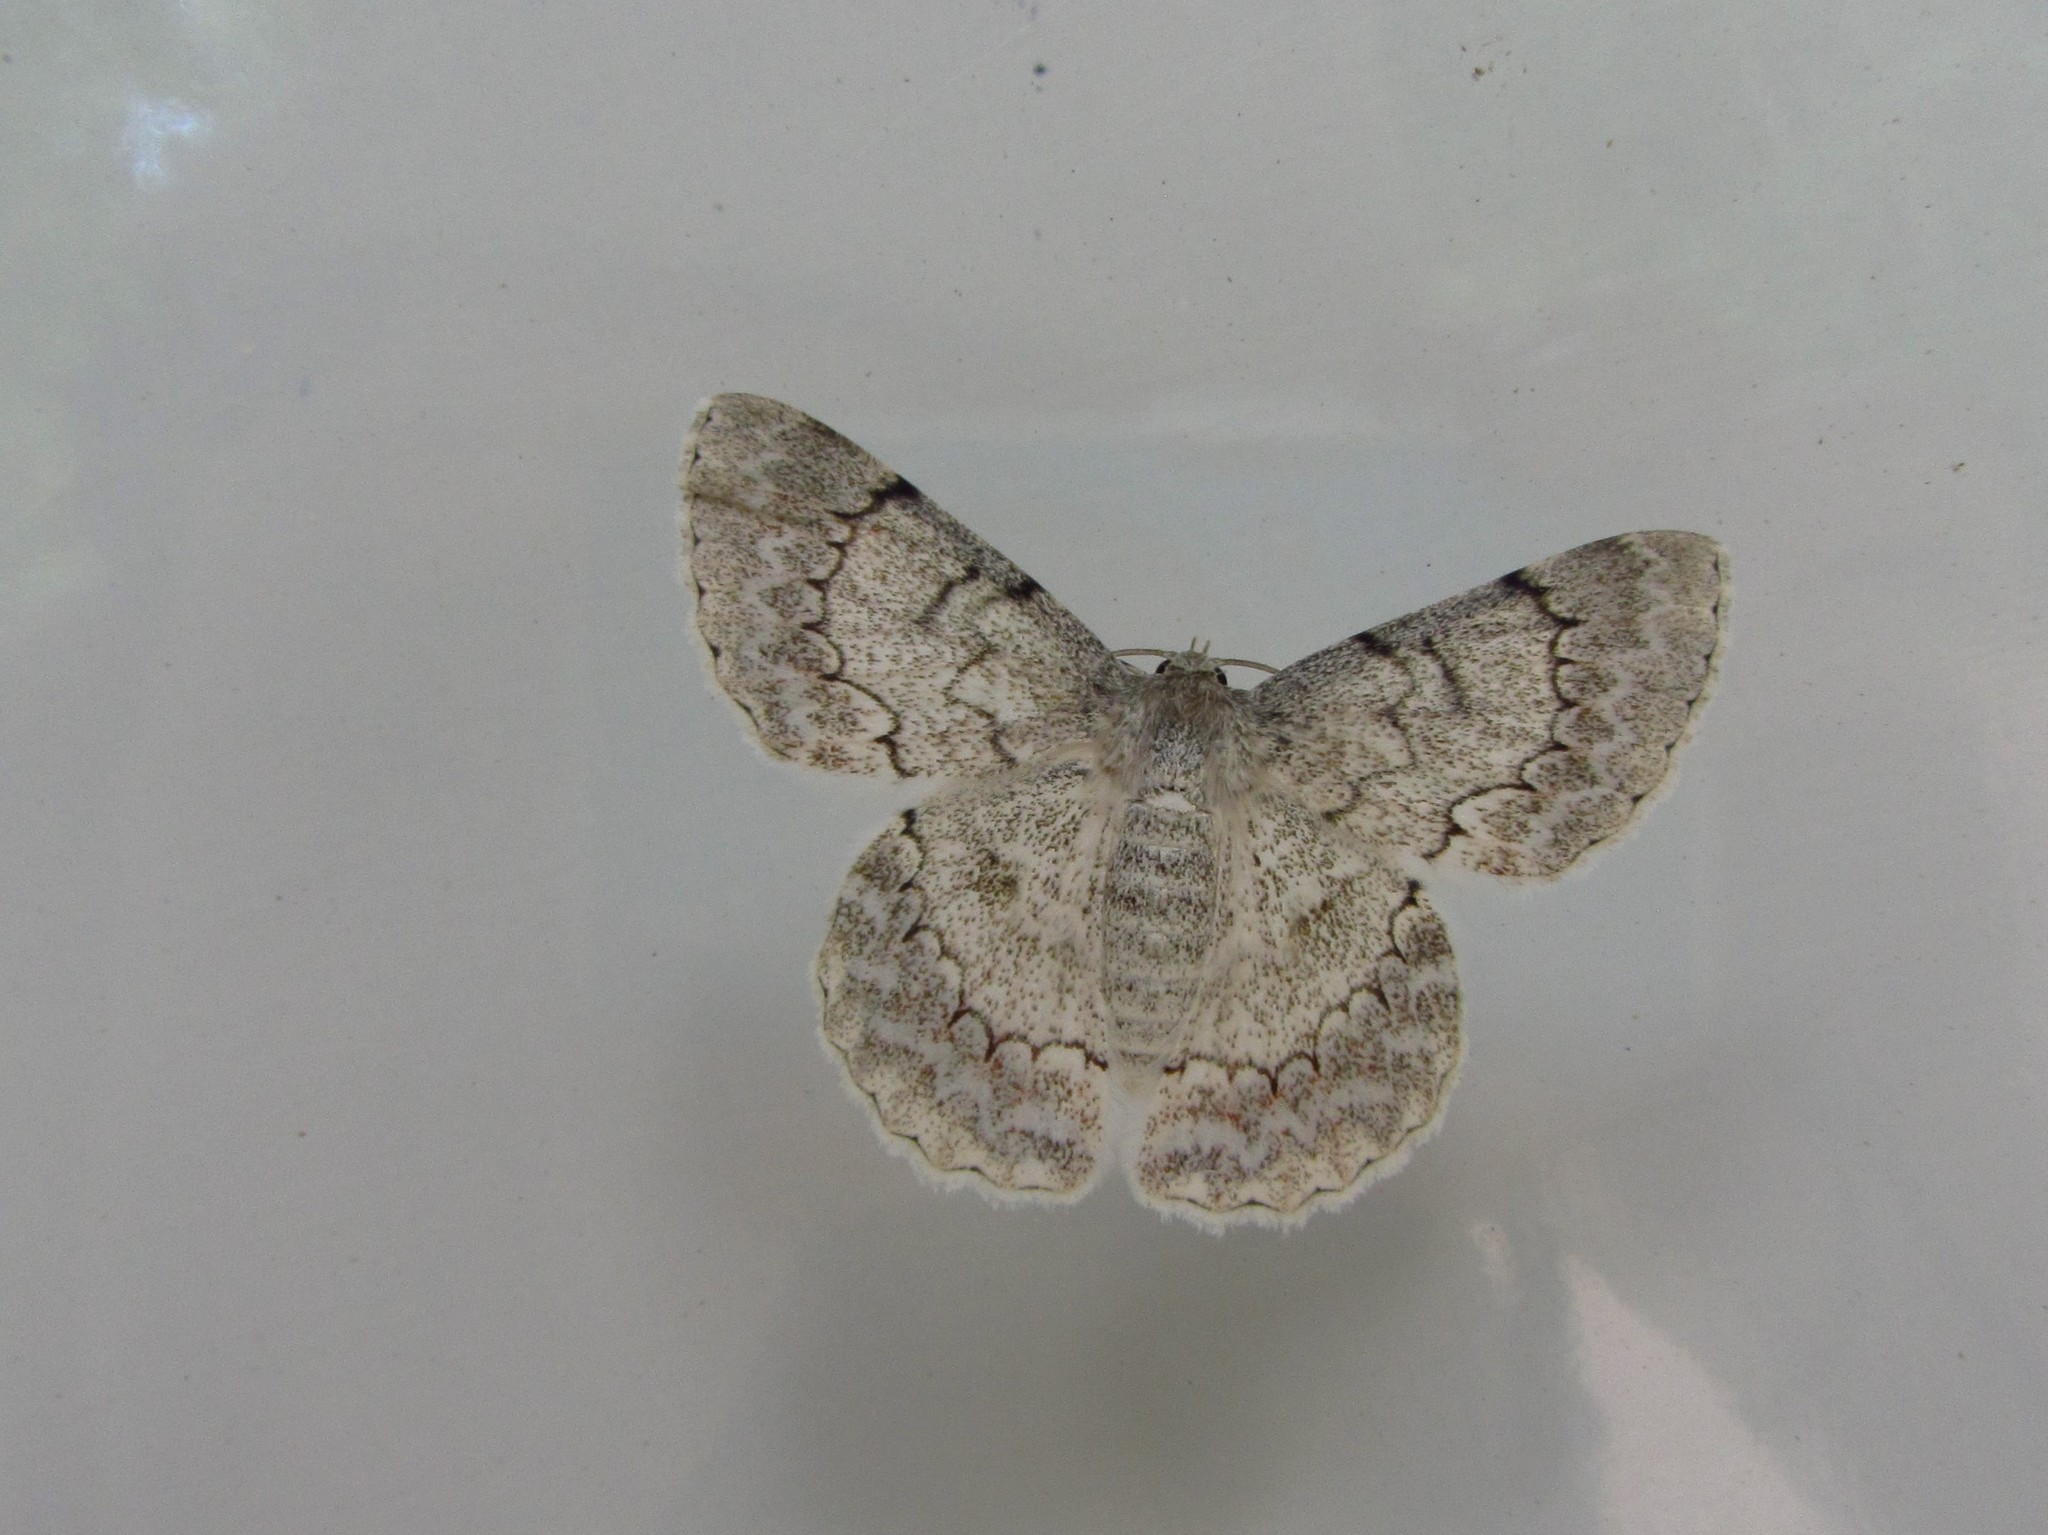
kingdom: Animalia
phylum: Arthropoda
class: Insecta
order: Lepidoptera
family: Geometridae
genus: Pingasa
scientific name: Pingasa chlora
